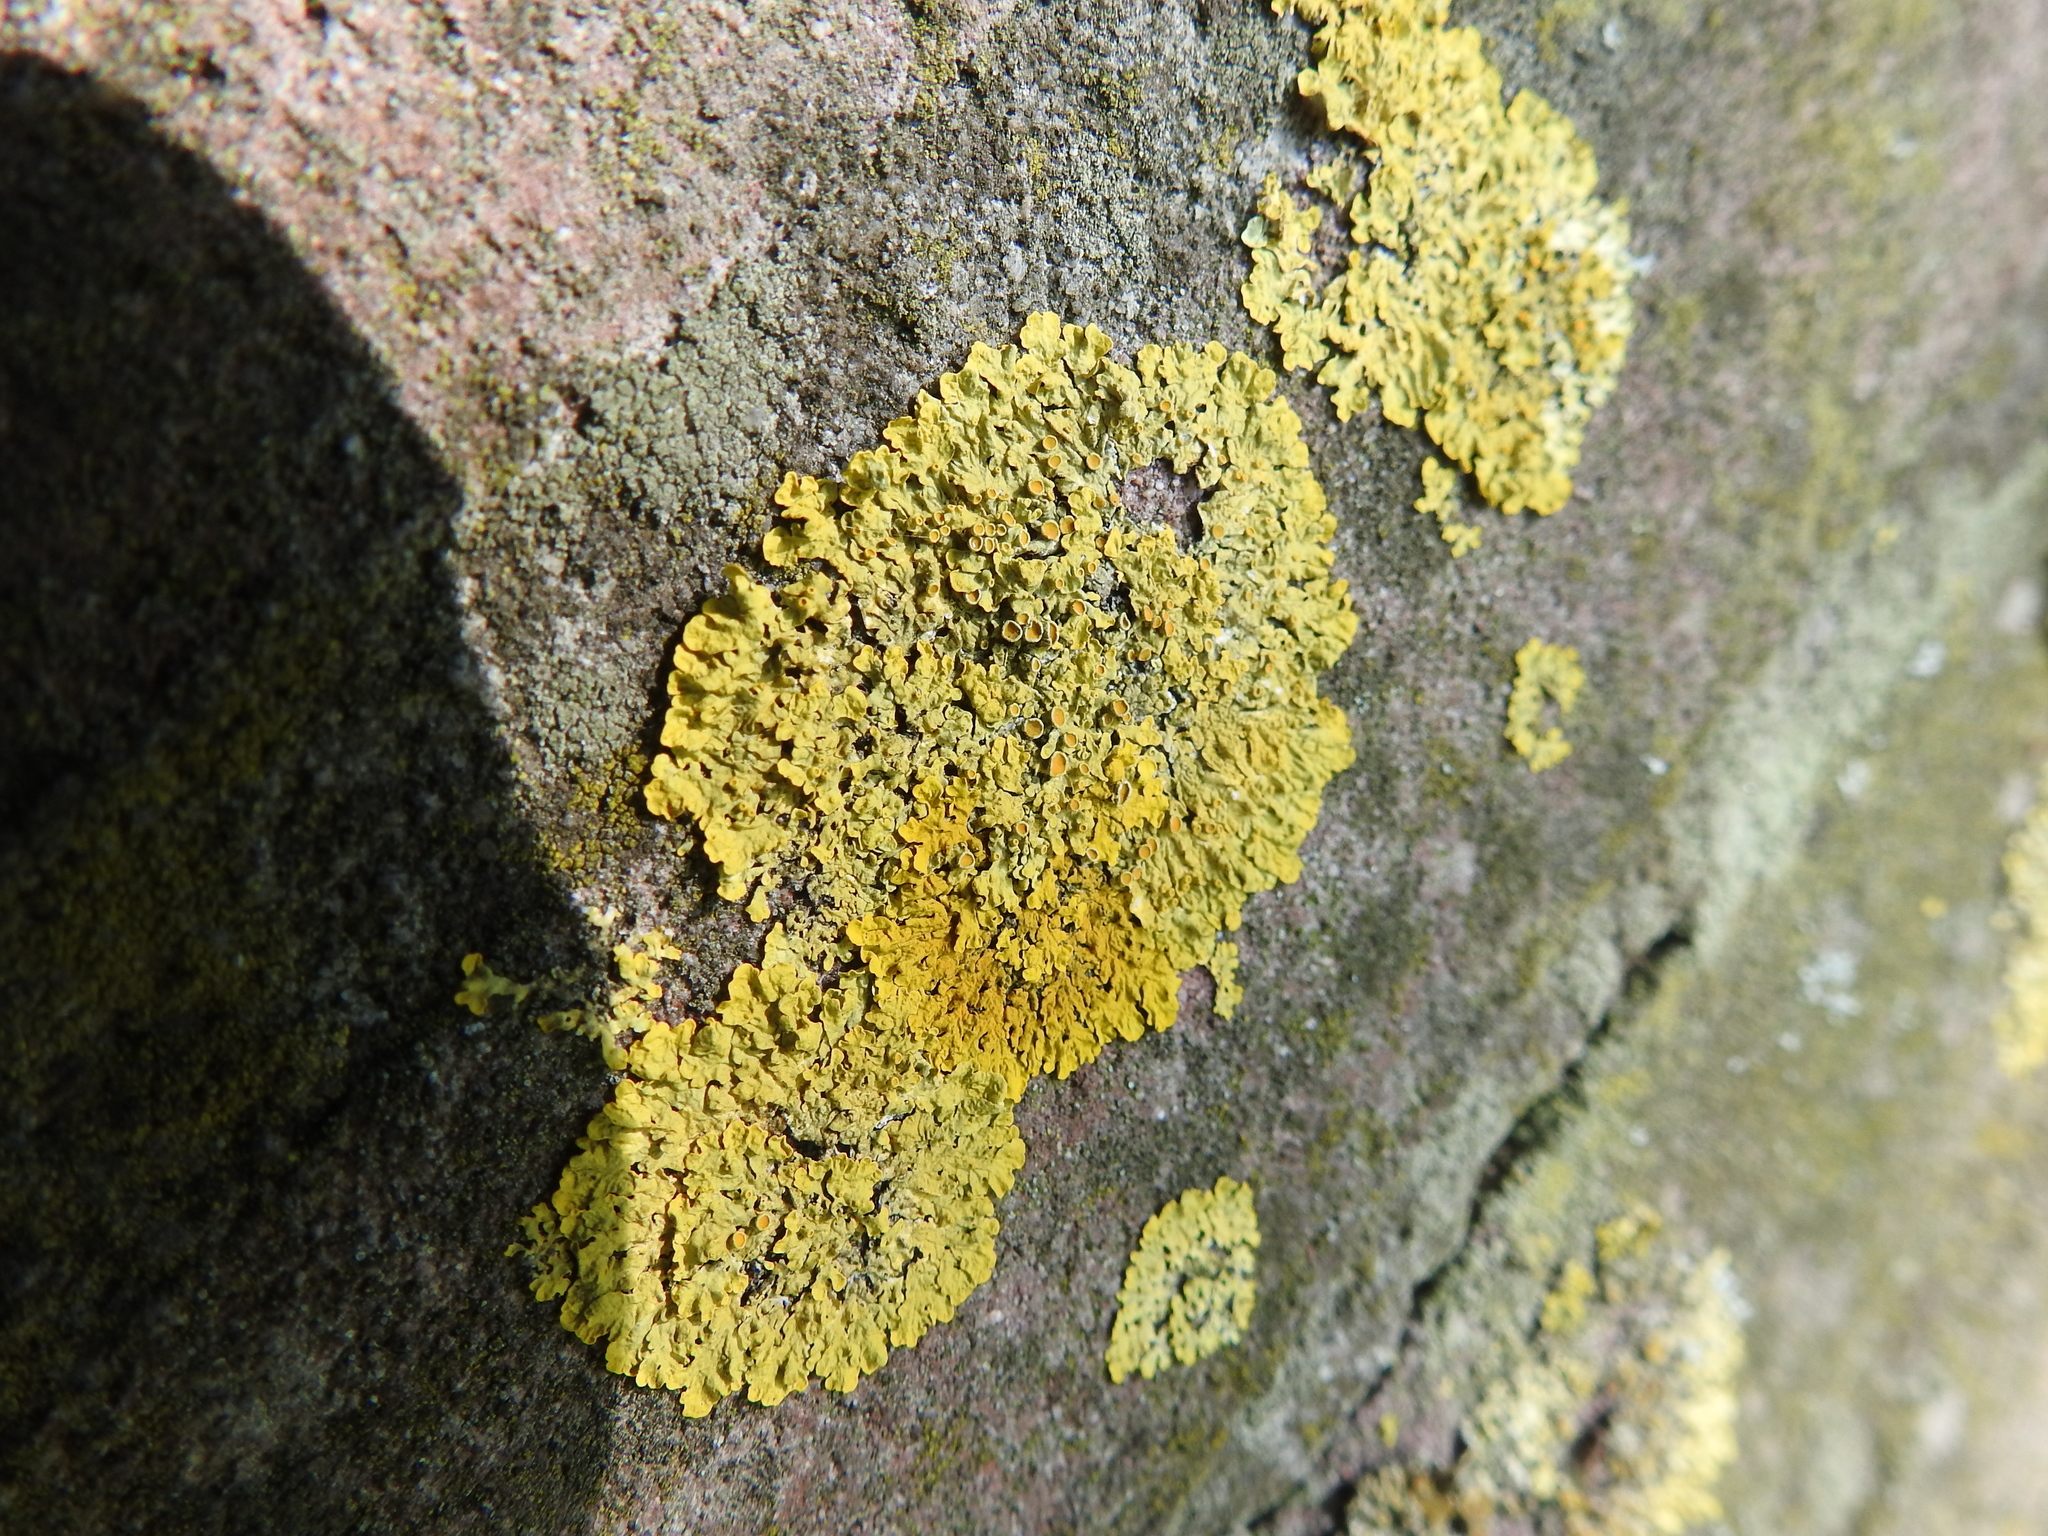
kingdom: Fungi
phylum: Ascomycota
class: Lecanoromycetes
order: Teloschistales
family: Teloschistaceae
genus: Xanthoria
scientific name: Xanthoria parietina
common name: Common orange lichen
